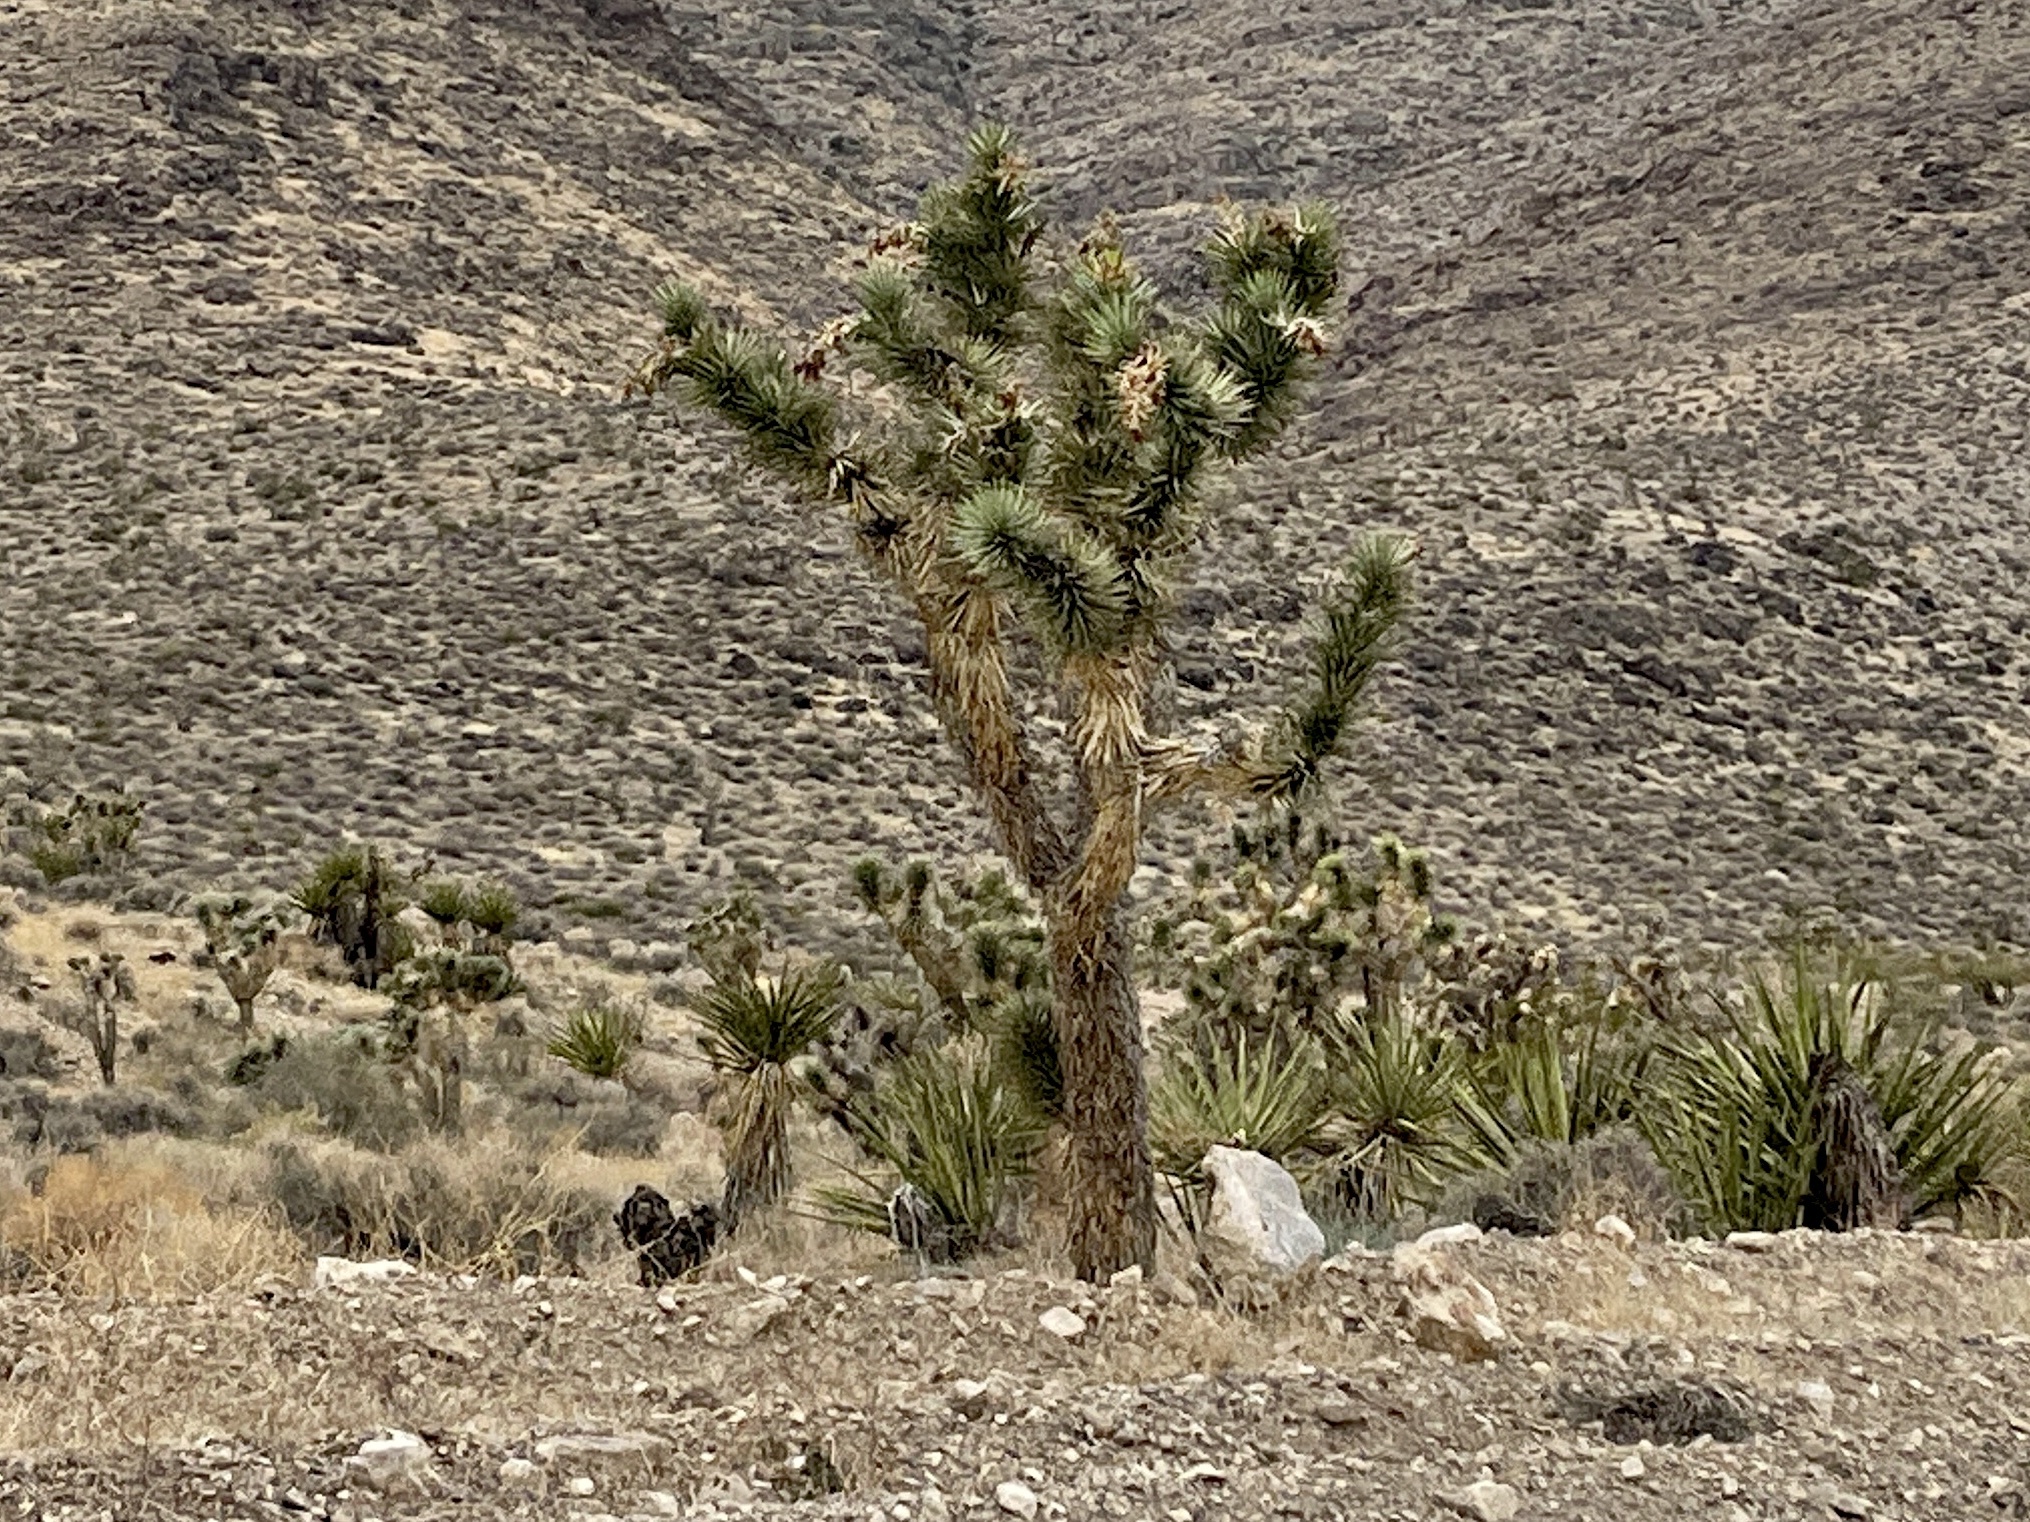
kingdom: Plantae
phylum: Tracheophyta
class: Liliopsida
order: Asparagales
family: Asparagaceae
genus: Yucca
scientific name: Yucca brevifolia
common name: Joshua tree
